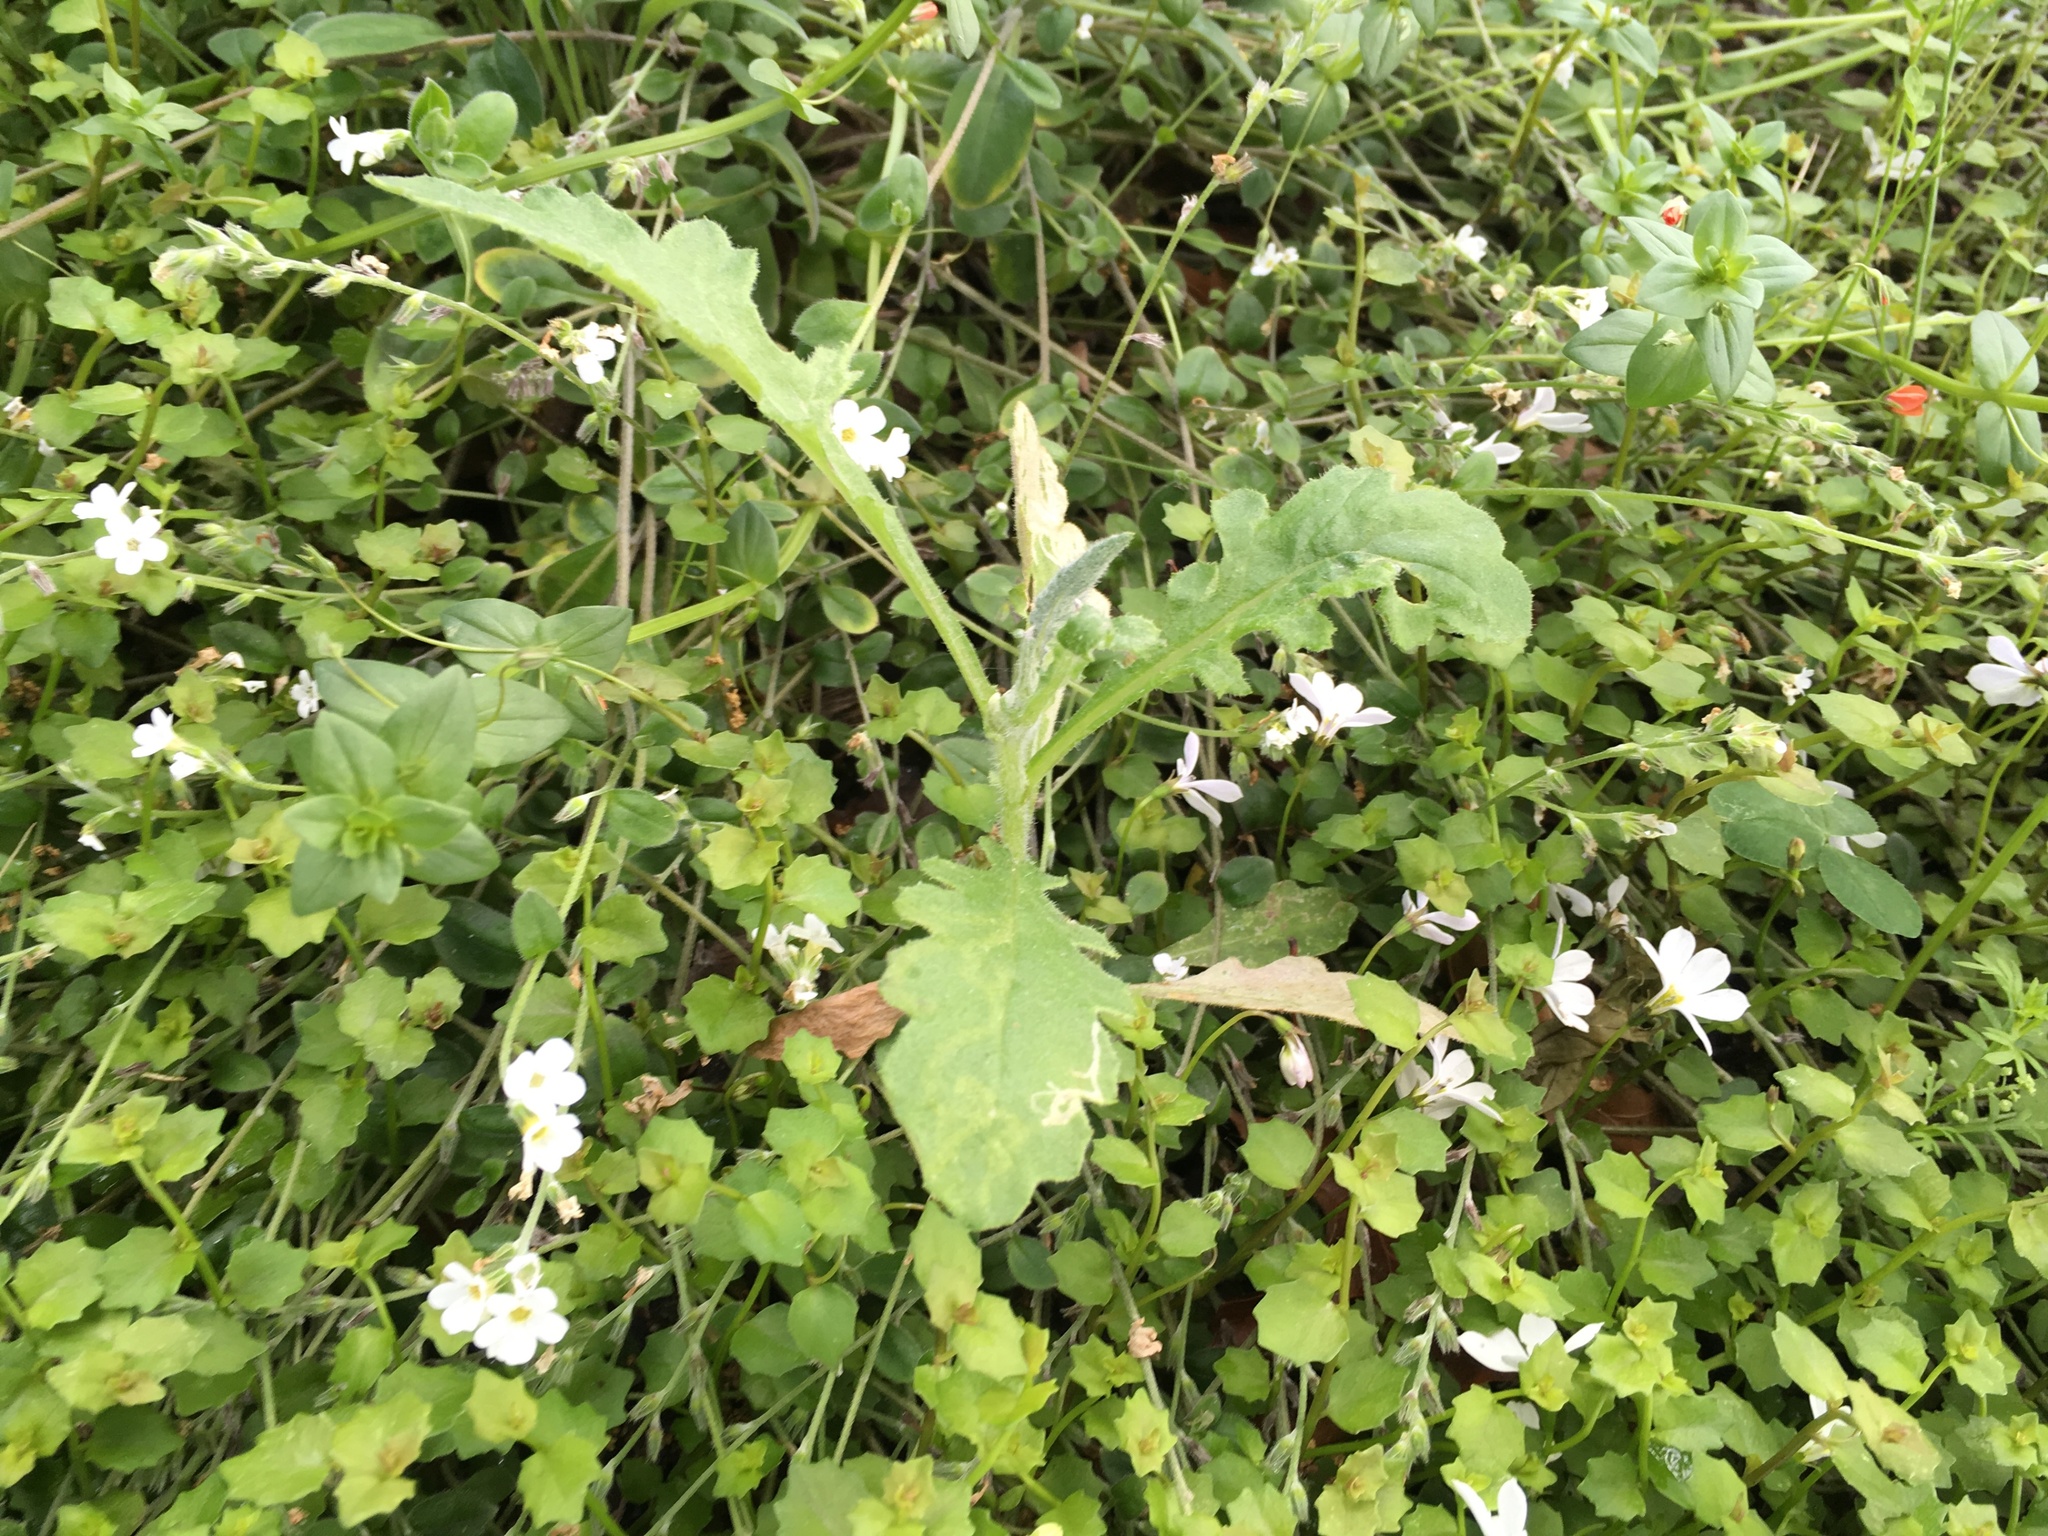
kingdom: Plantae
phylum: Tracheophyta
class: Magnoliopsida
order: Asterales
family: Asteraceae
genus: Senecio
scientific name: Senecio glomeratus
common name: Cutleaf burnweed
